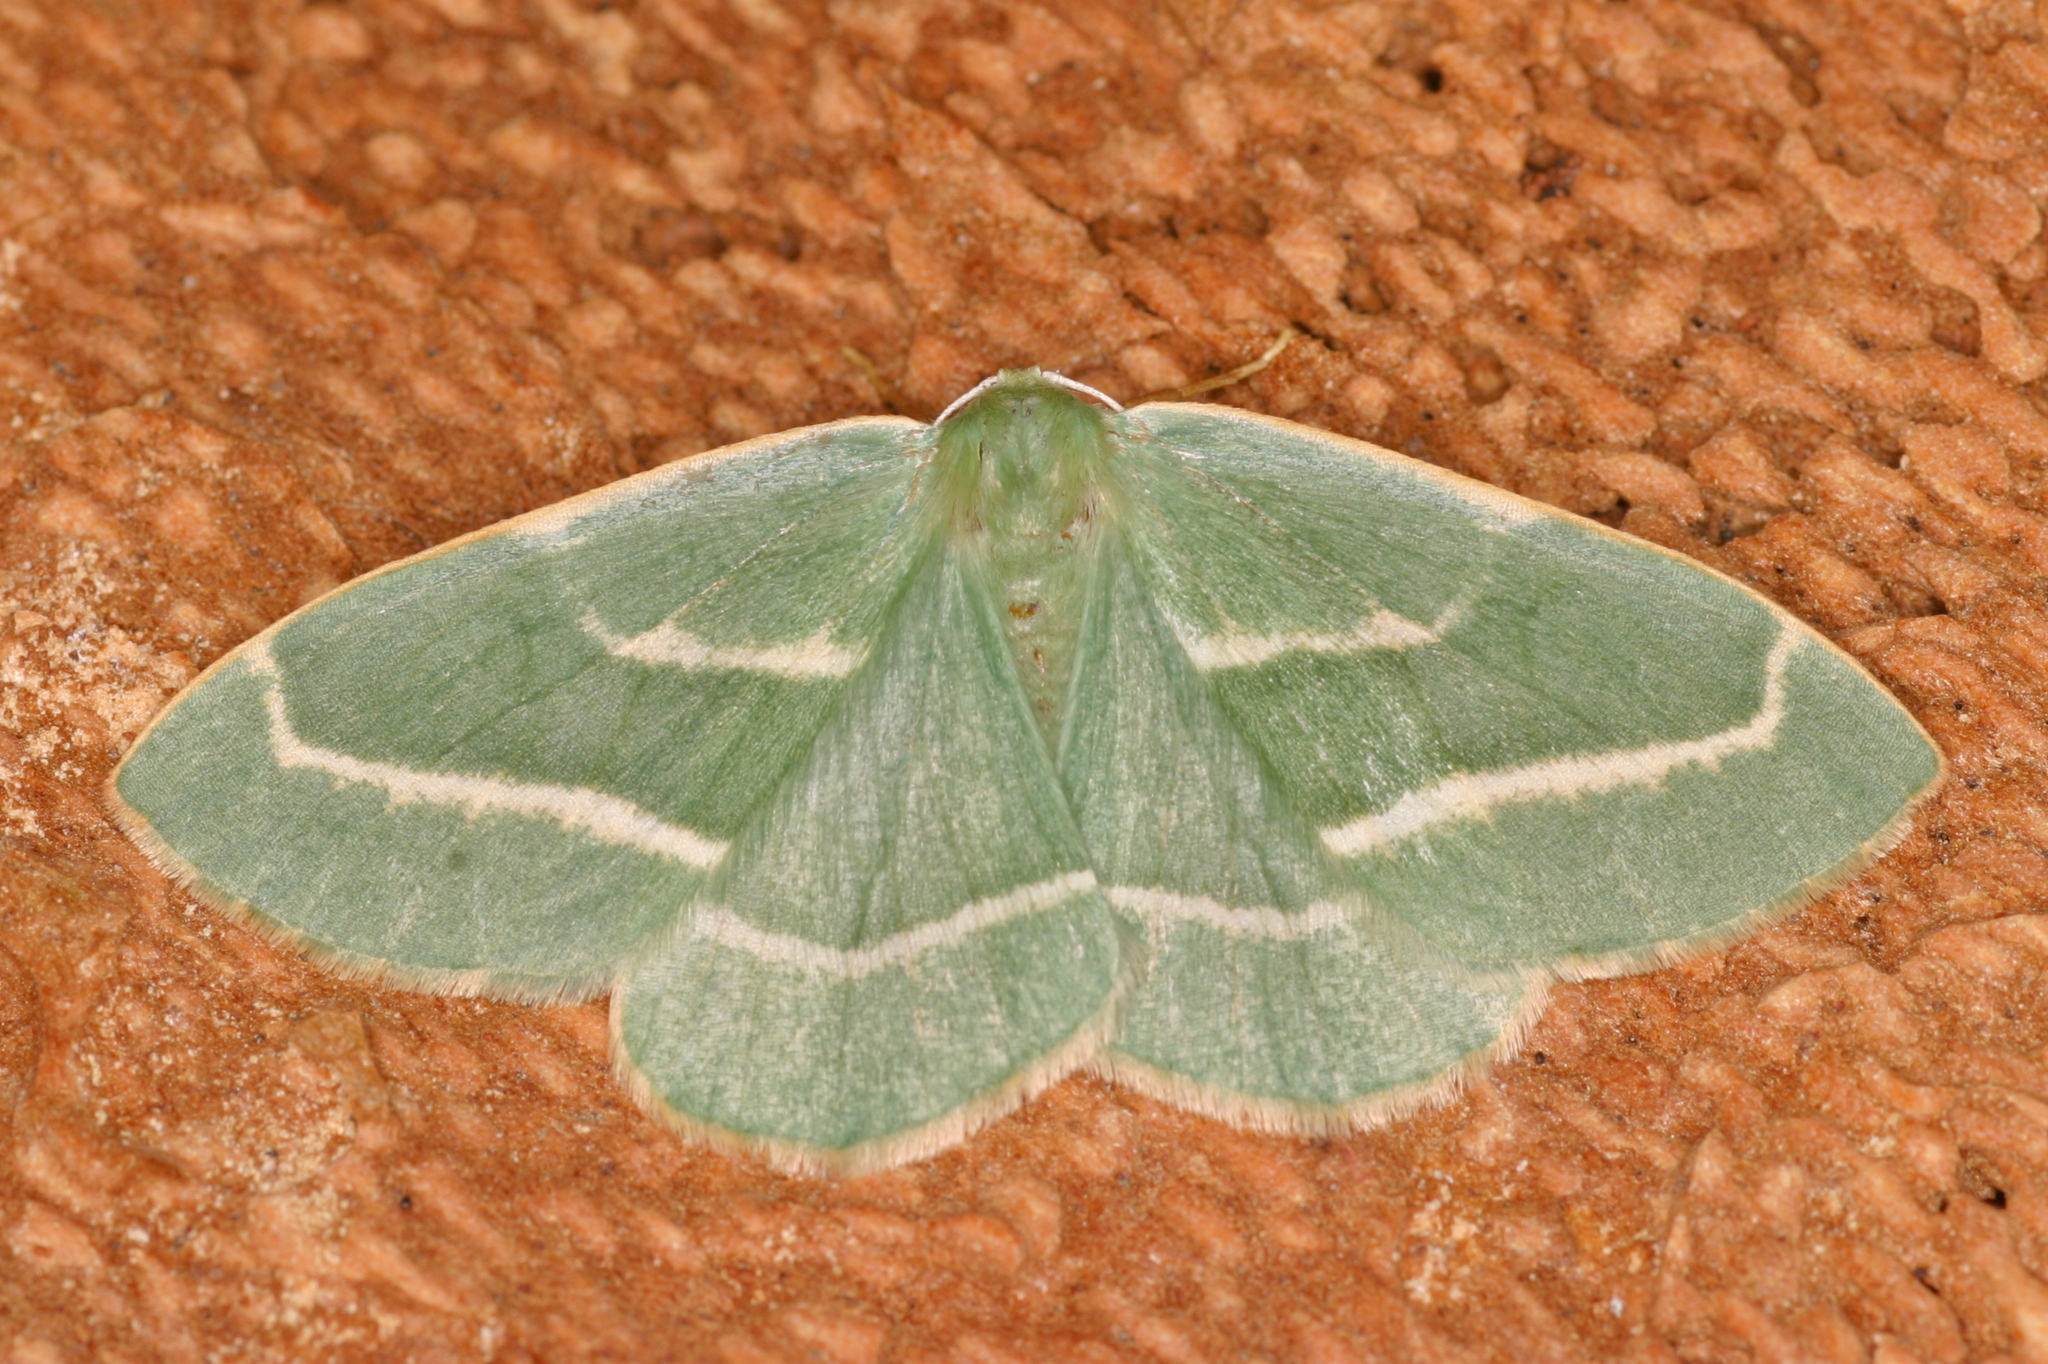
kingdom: Animalia
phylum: Arthropoda
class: Insecta
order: Lepidoptera
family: Geometridae
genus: Hylaea
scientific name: Hylaea fasciaria
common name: Barred red
